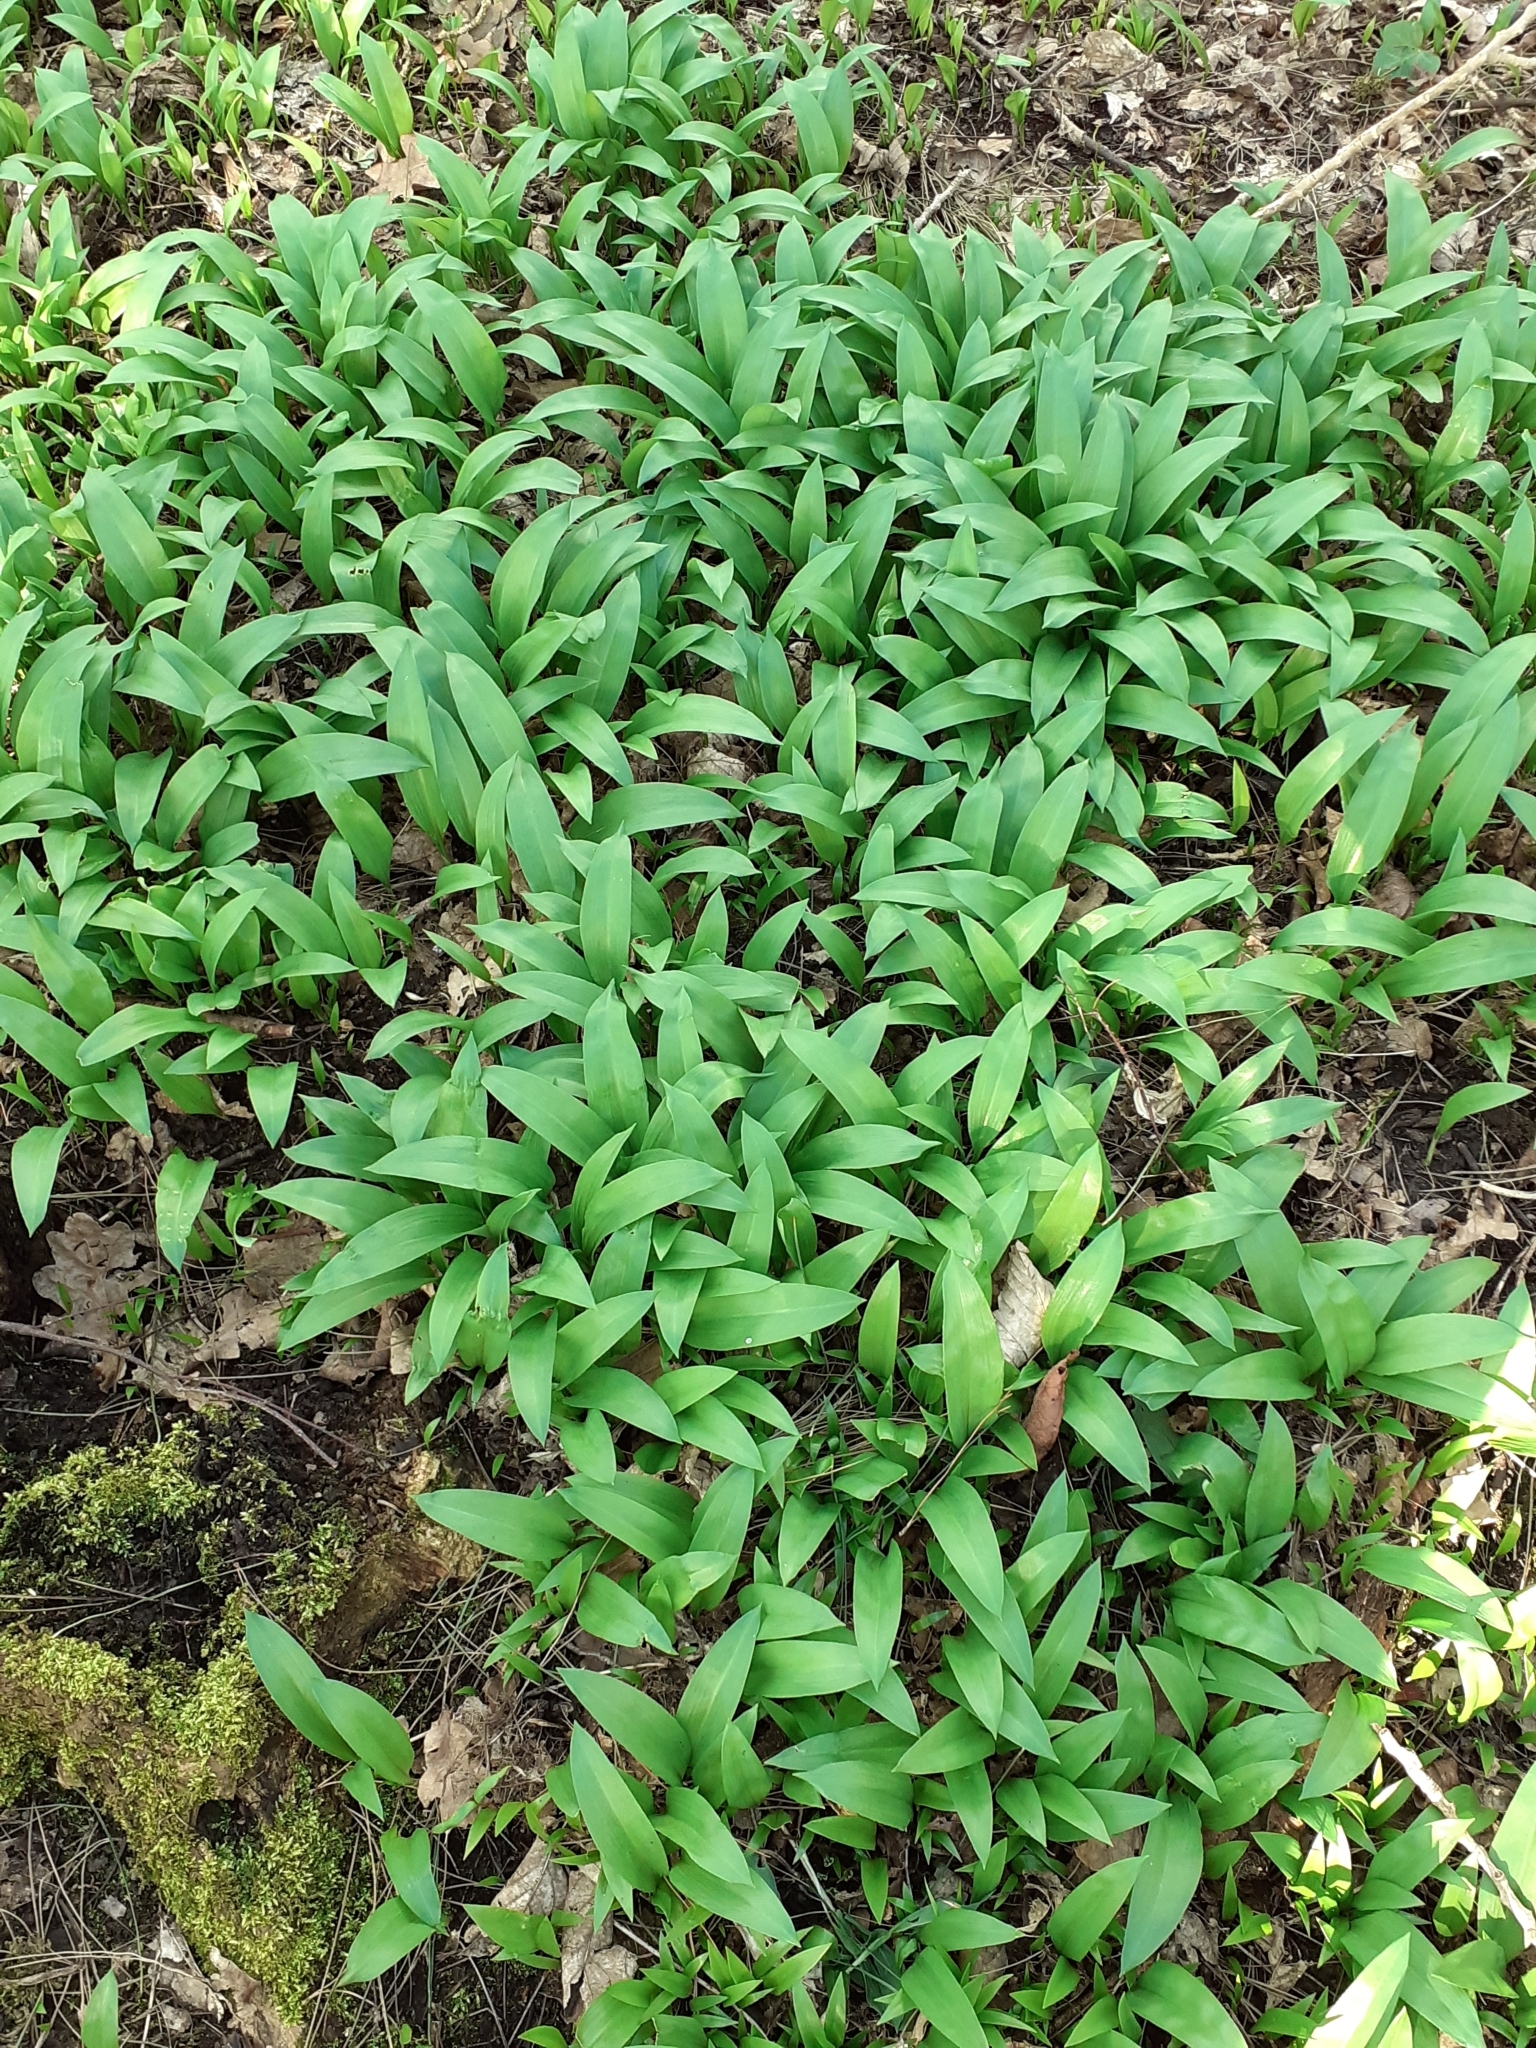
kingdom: Plantae
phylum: Tracheophyta
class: Liliopsida
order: Asparagales
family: Amaryllidaceae
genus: Allium
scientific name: Allium ursinum
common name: Ramsons
